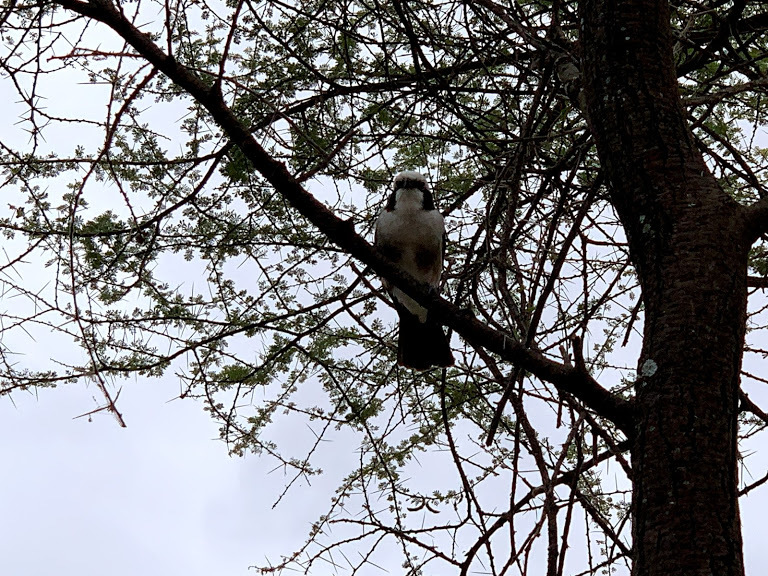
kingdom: Animalia
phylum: Chordata
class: Aves
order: Passeriformes
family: Laniidae
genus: Eurocephalus
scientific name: Eurocephalus ruppelli
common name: Northern white-crowned shrike
